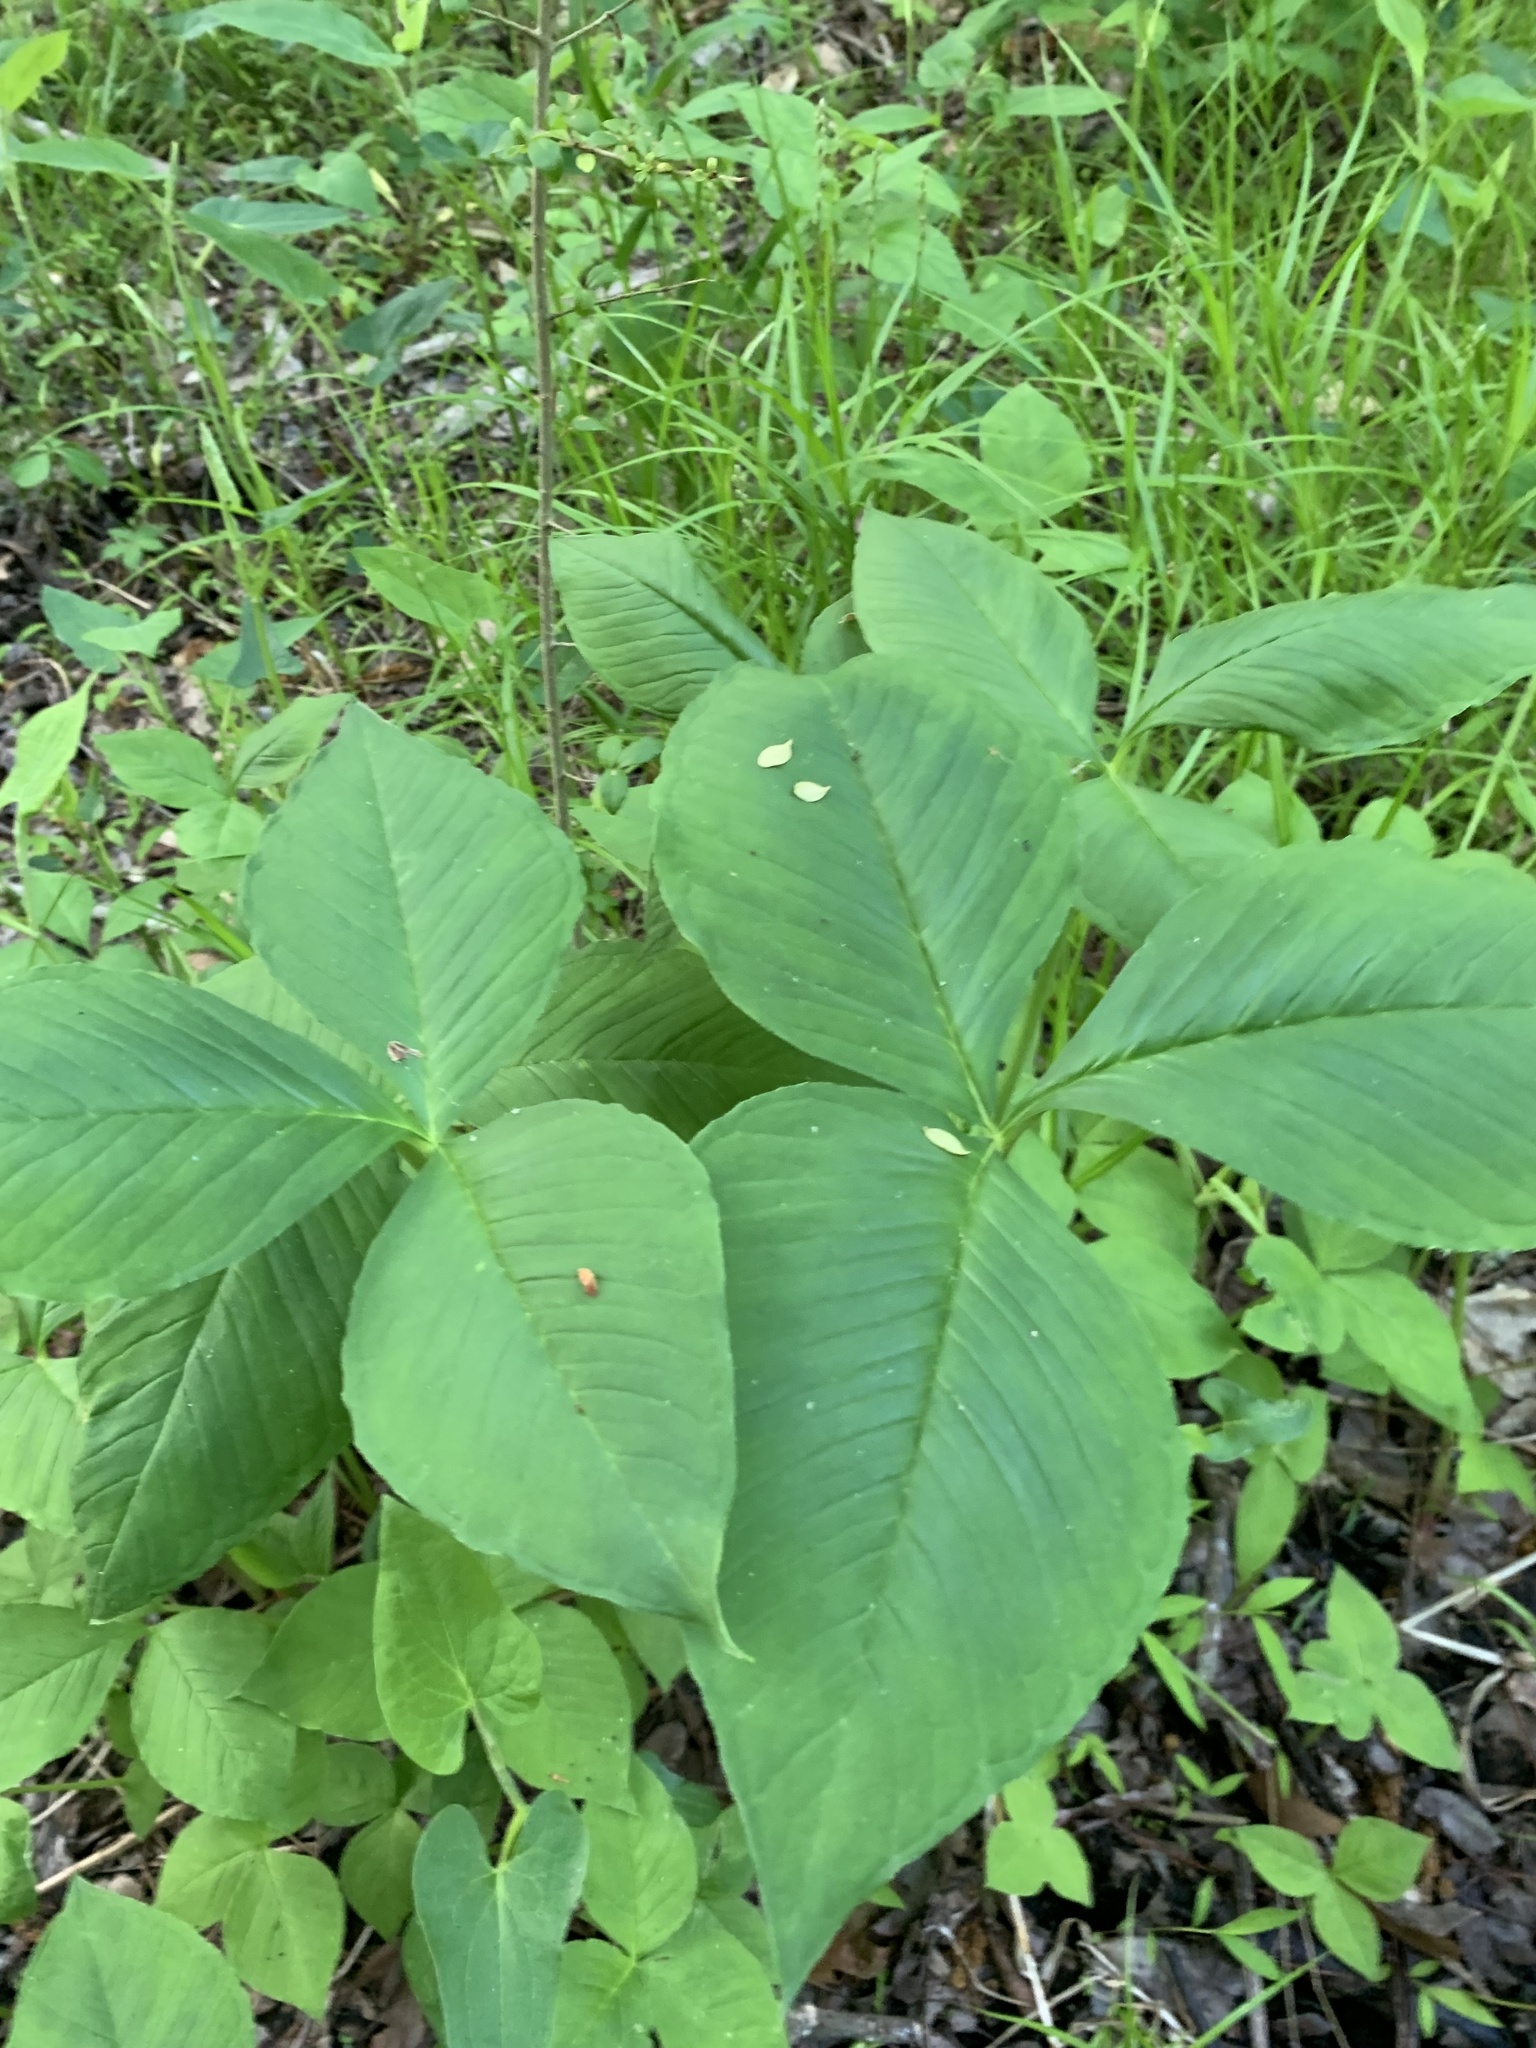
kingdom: Plantae
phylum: Tracheophyta
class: Liliopsida
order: Alismatales
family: Araceae
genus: Arisaema
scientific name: Arisaema triphyllum
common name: Jack-in-the-pulpit
